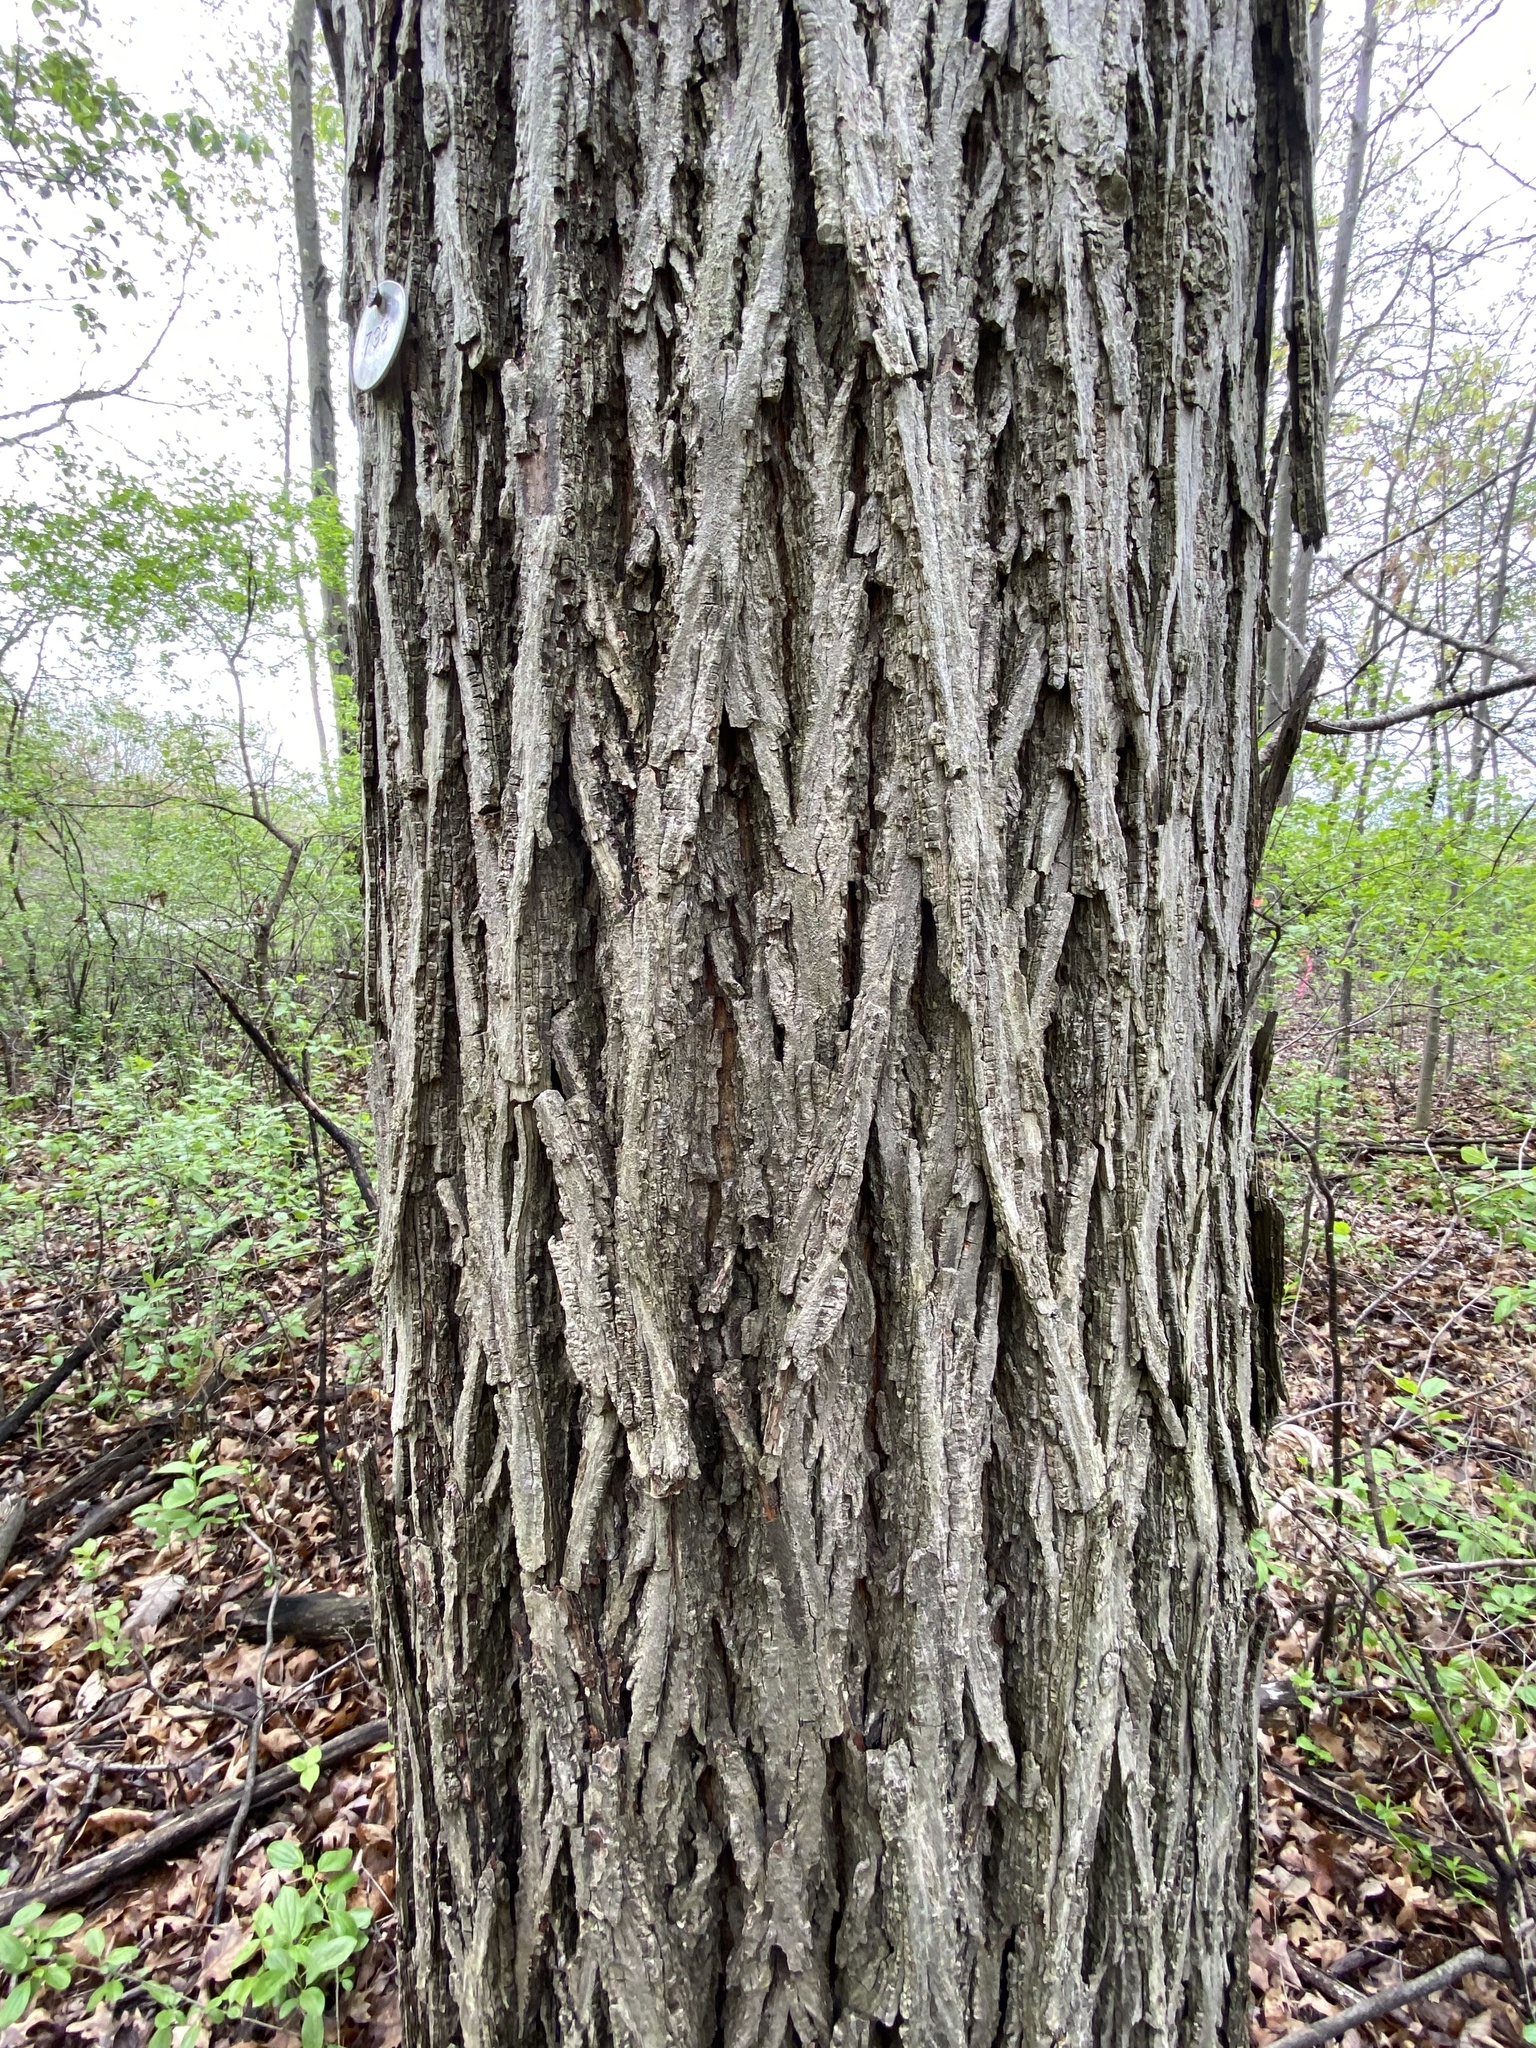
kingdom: Plantae
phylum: Tracheophyta
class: Magnoliopsida
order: Fagales
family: Juglandaceae
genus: Juglans
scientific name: Juglans cinerea
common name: Butternut
